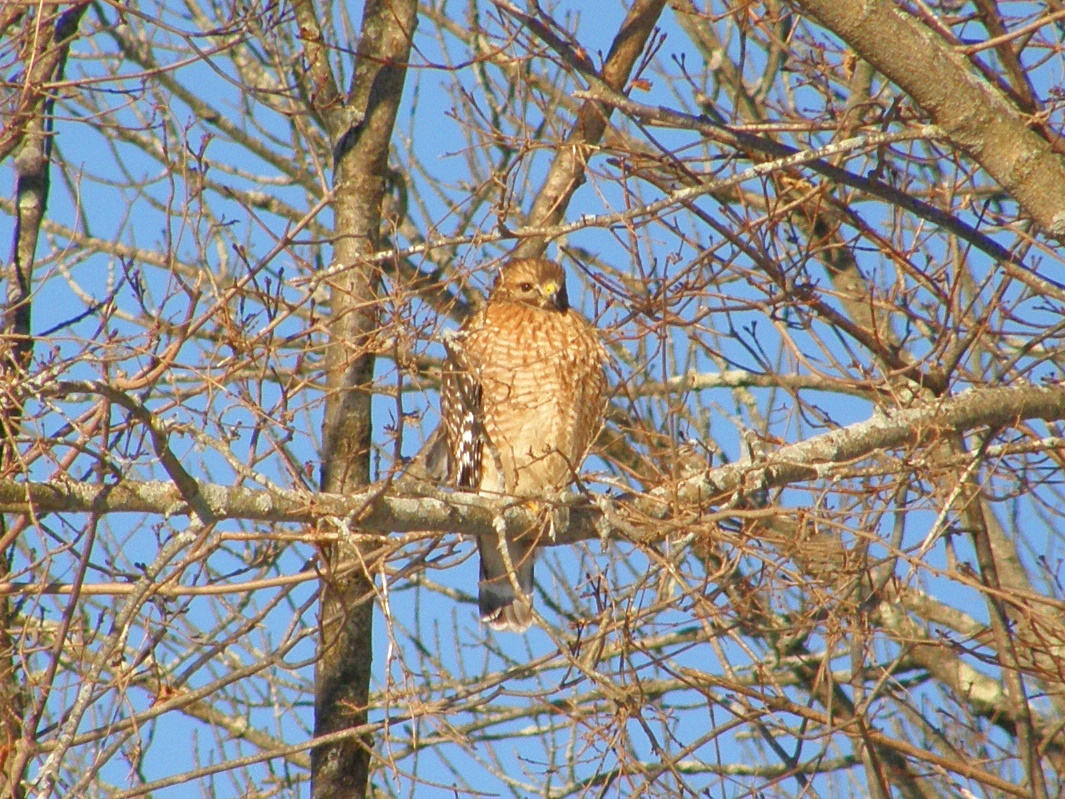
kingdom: Animalia
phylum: Chordata
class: Aves
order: Accipitriformes
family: Accipitridae
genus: Buteo
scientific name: Buteo lineatus
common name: Red-shouldered hawk
